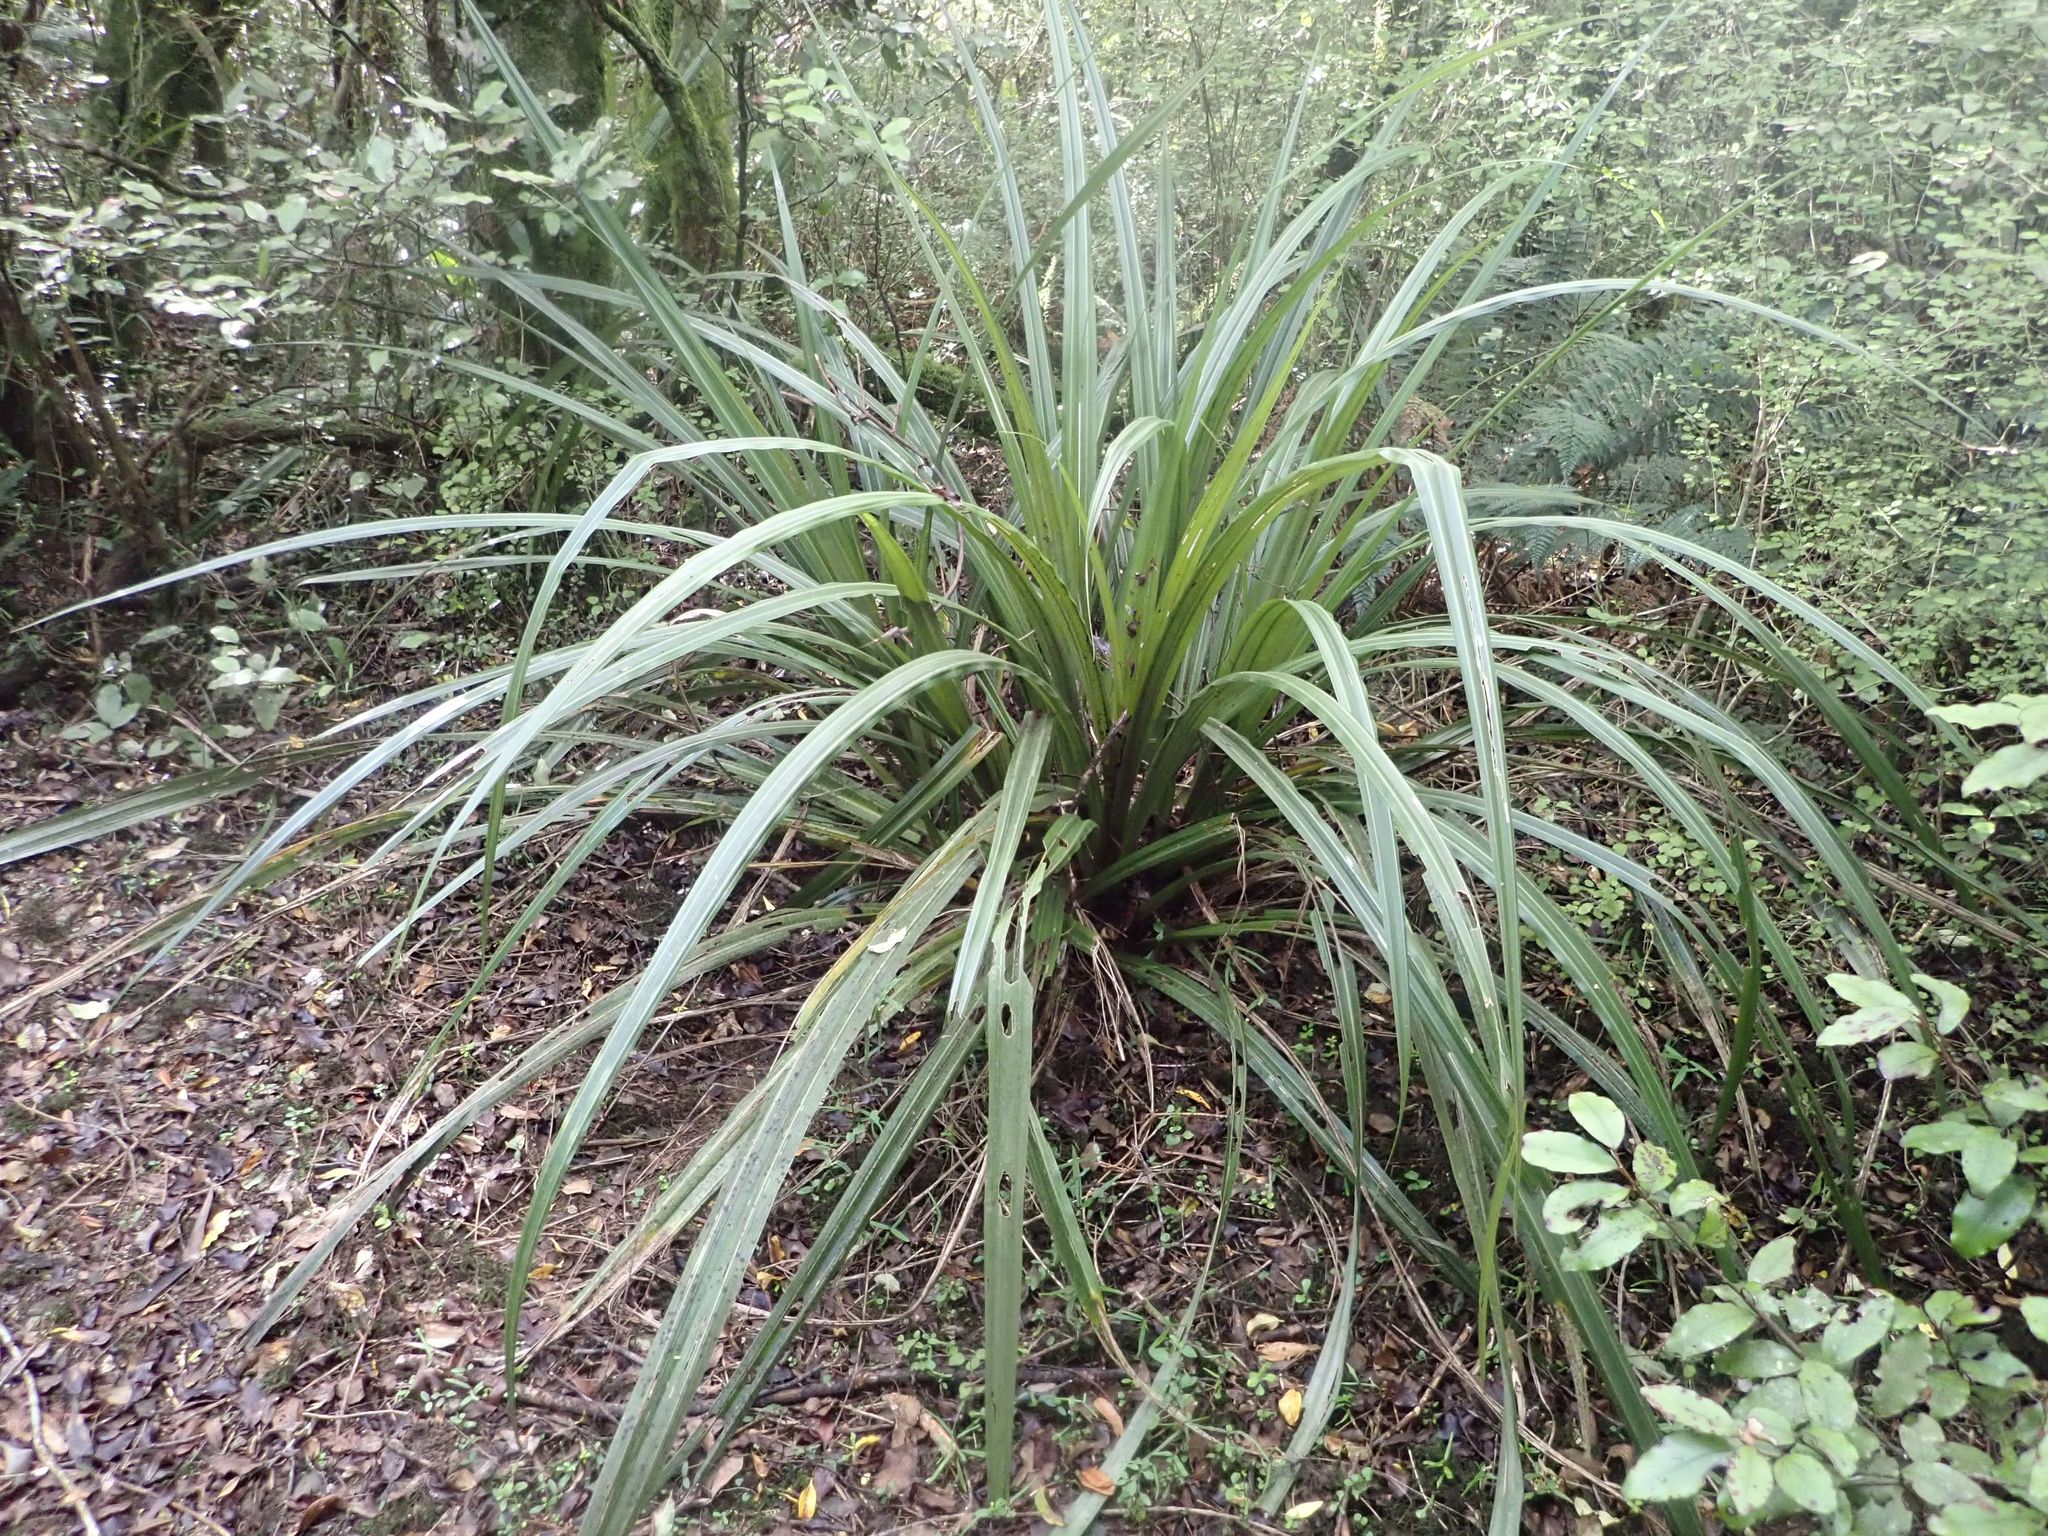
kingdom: Plantae
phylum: Tracheophyta
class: Liliopsida
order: Asparagales
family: Asteliaceae
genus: Astelia
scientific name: Astelia fragrans
